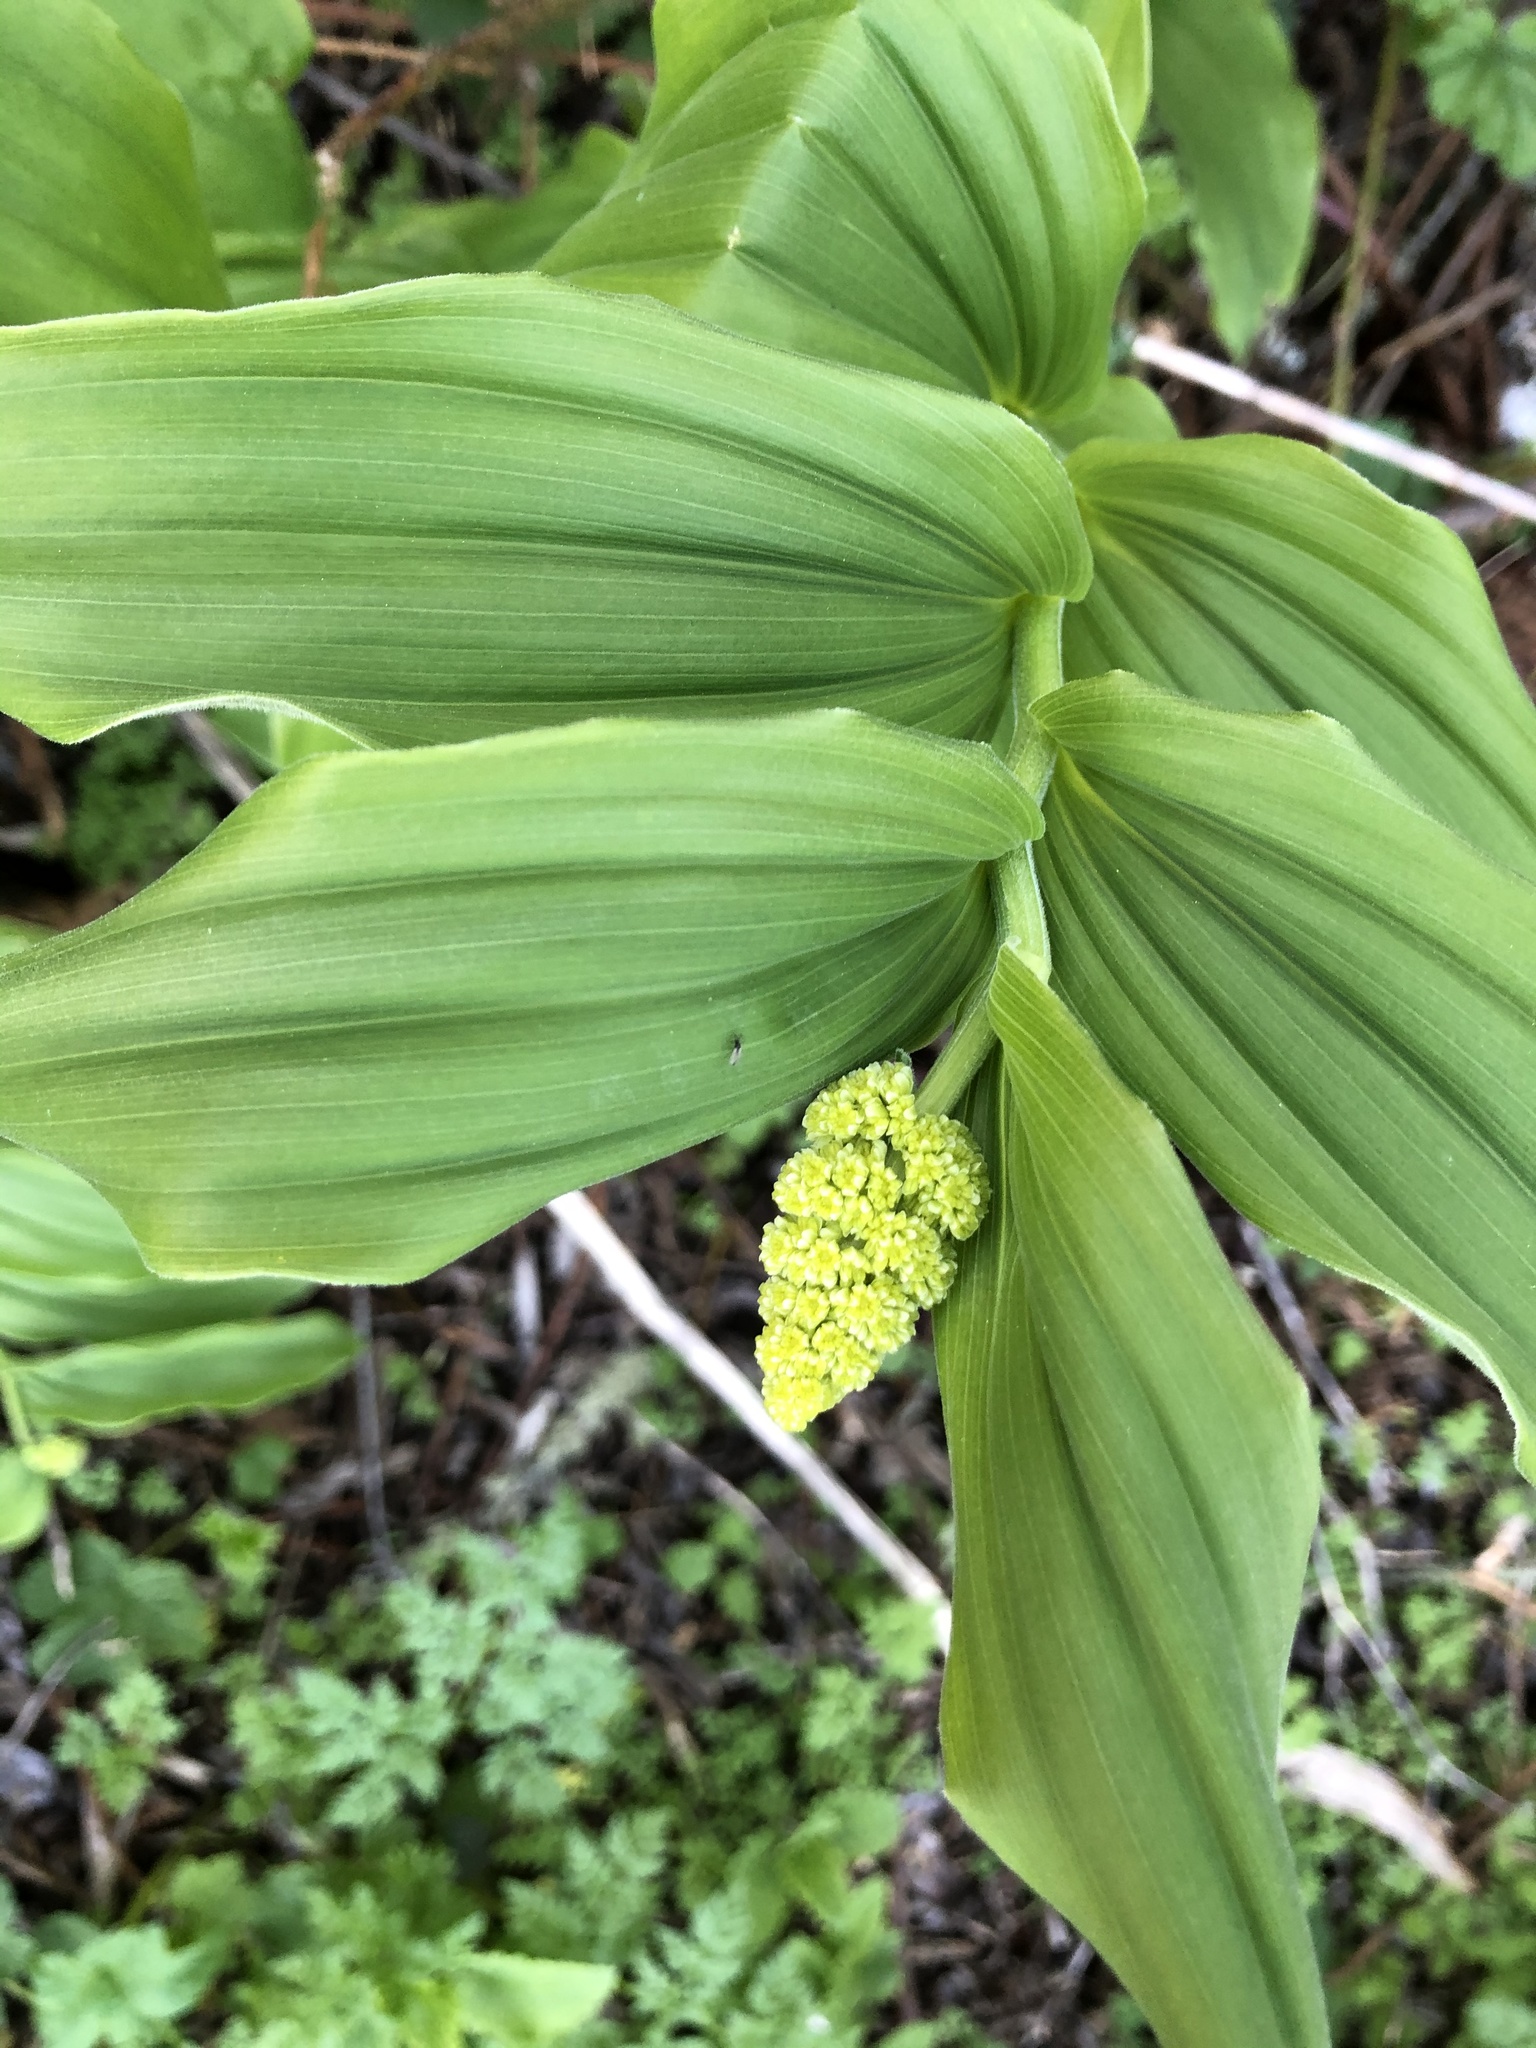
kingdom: Plantae
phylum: Tracheophyta
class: Liliopsida
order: Asparagales
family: Asparagaceae
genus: Maianthemum
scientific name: Maianthemum racemosum
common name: False spikenard
